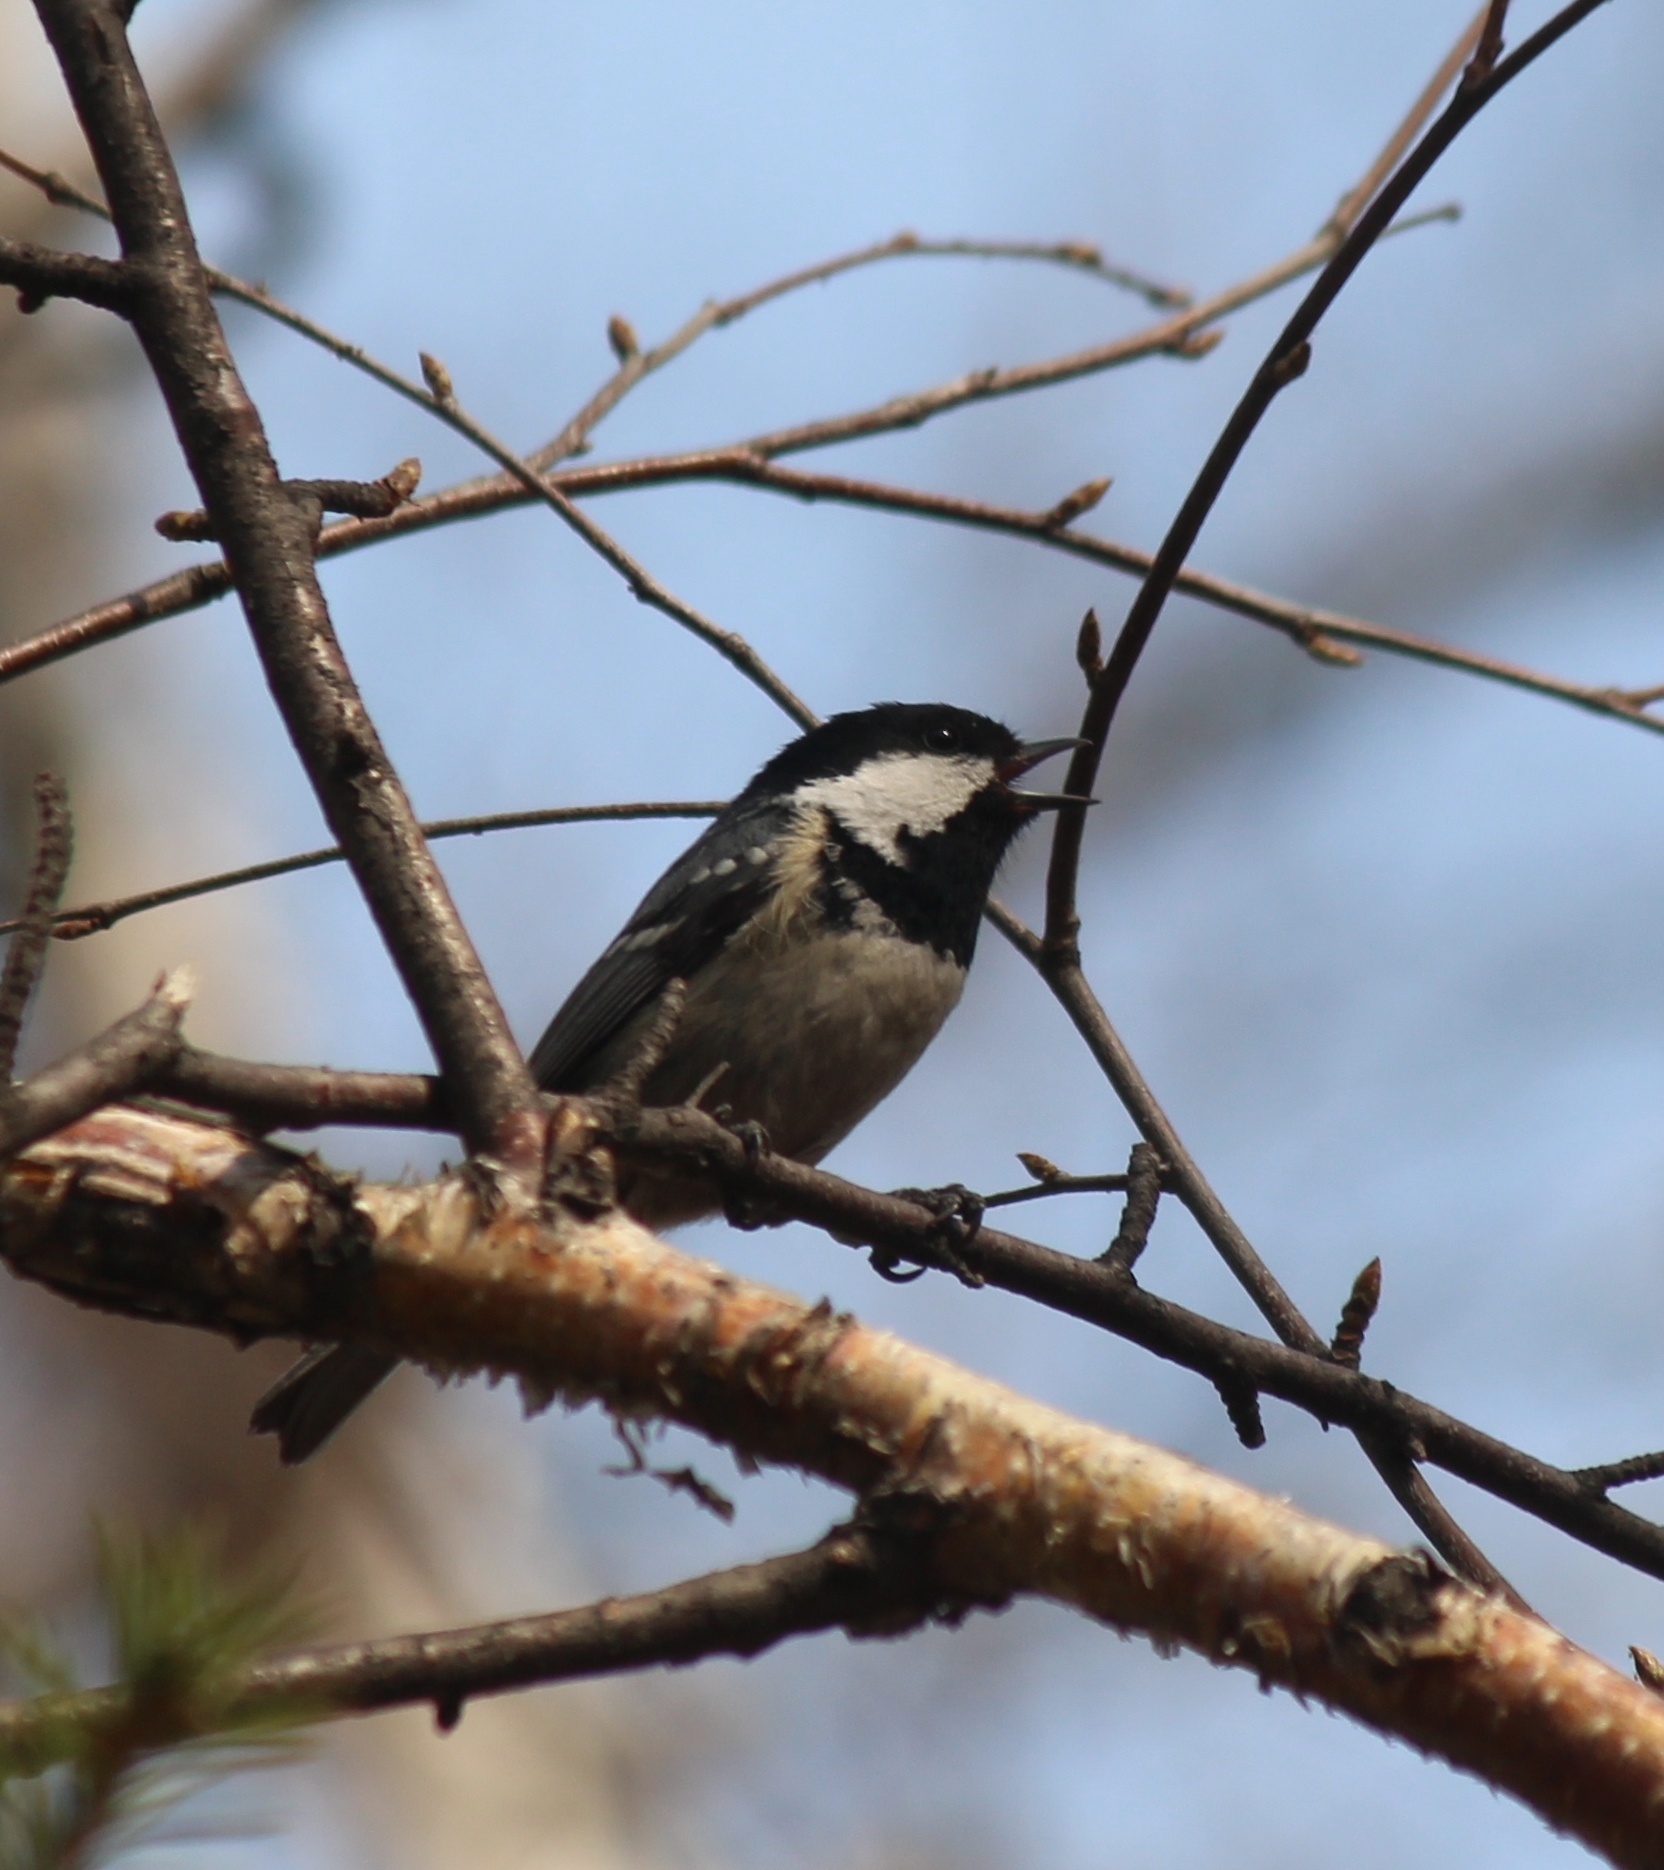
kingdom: Animalia
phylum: Chordata
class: Aves
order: Passeriformes
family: Paridae
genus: Periparus
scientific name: Periparus ater
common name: Coal tit
